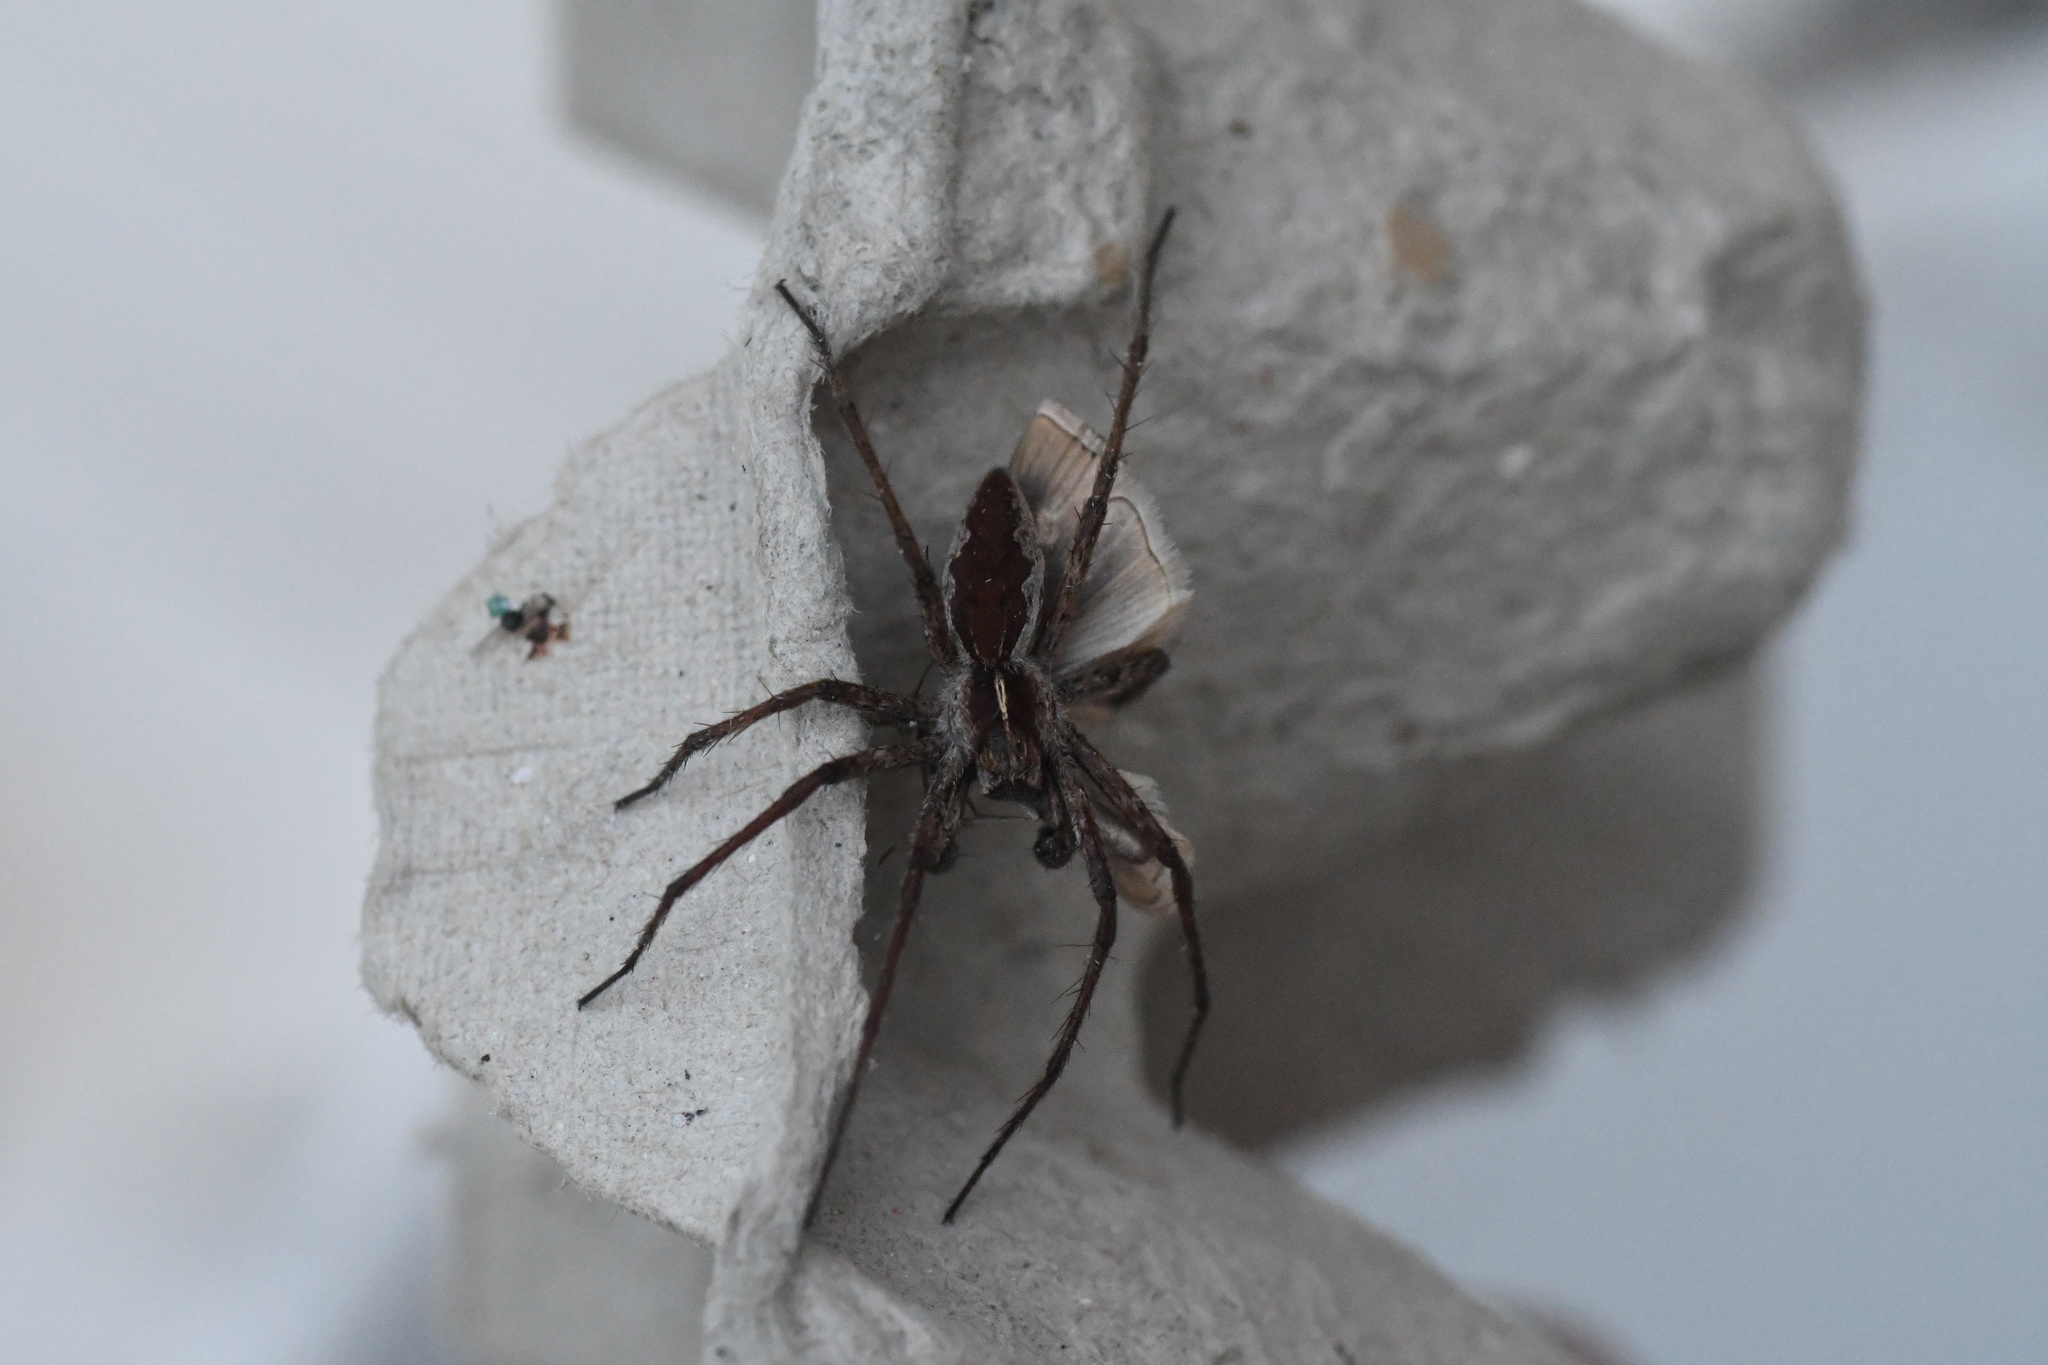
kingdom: Animalia
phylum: Arthropoda
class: Arachnida
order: Araneae
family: Pisauridae
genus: Pisaura
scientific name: Pisaura mirabilis
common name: Tent spider
